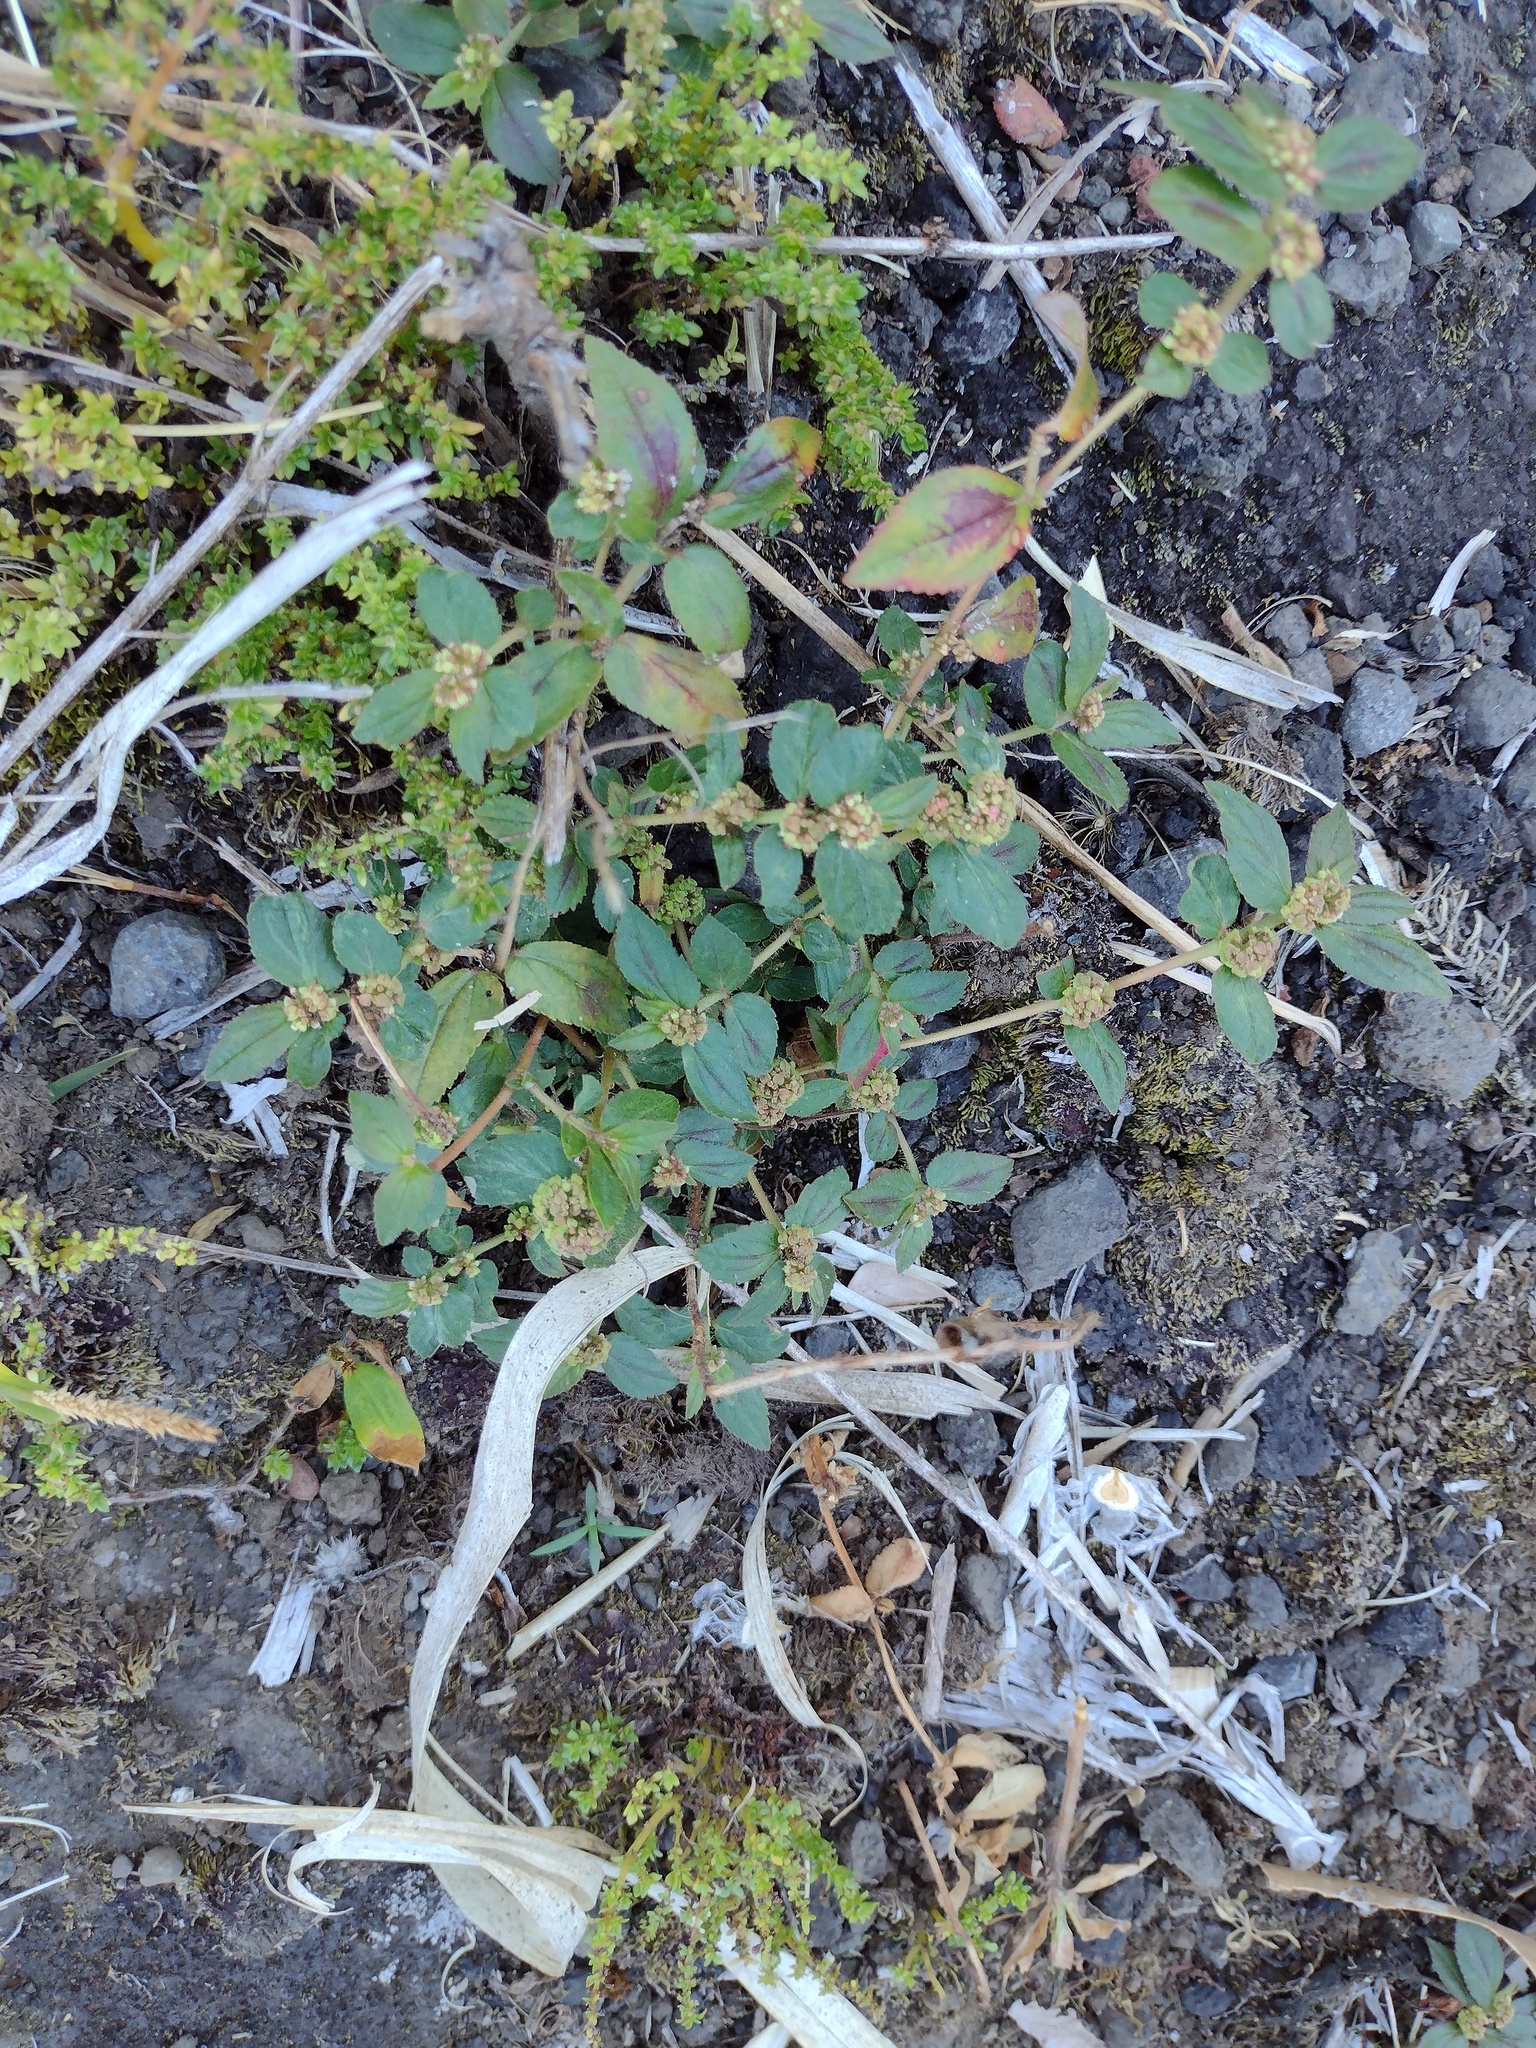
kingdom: Plantae
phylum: Tracheophyta
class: Magnoliopsida
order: Malpighiales
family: Euphorbiaceae
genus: Euphorbia
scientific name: Euphorbia hirta
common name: Pillpod sandmat
